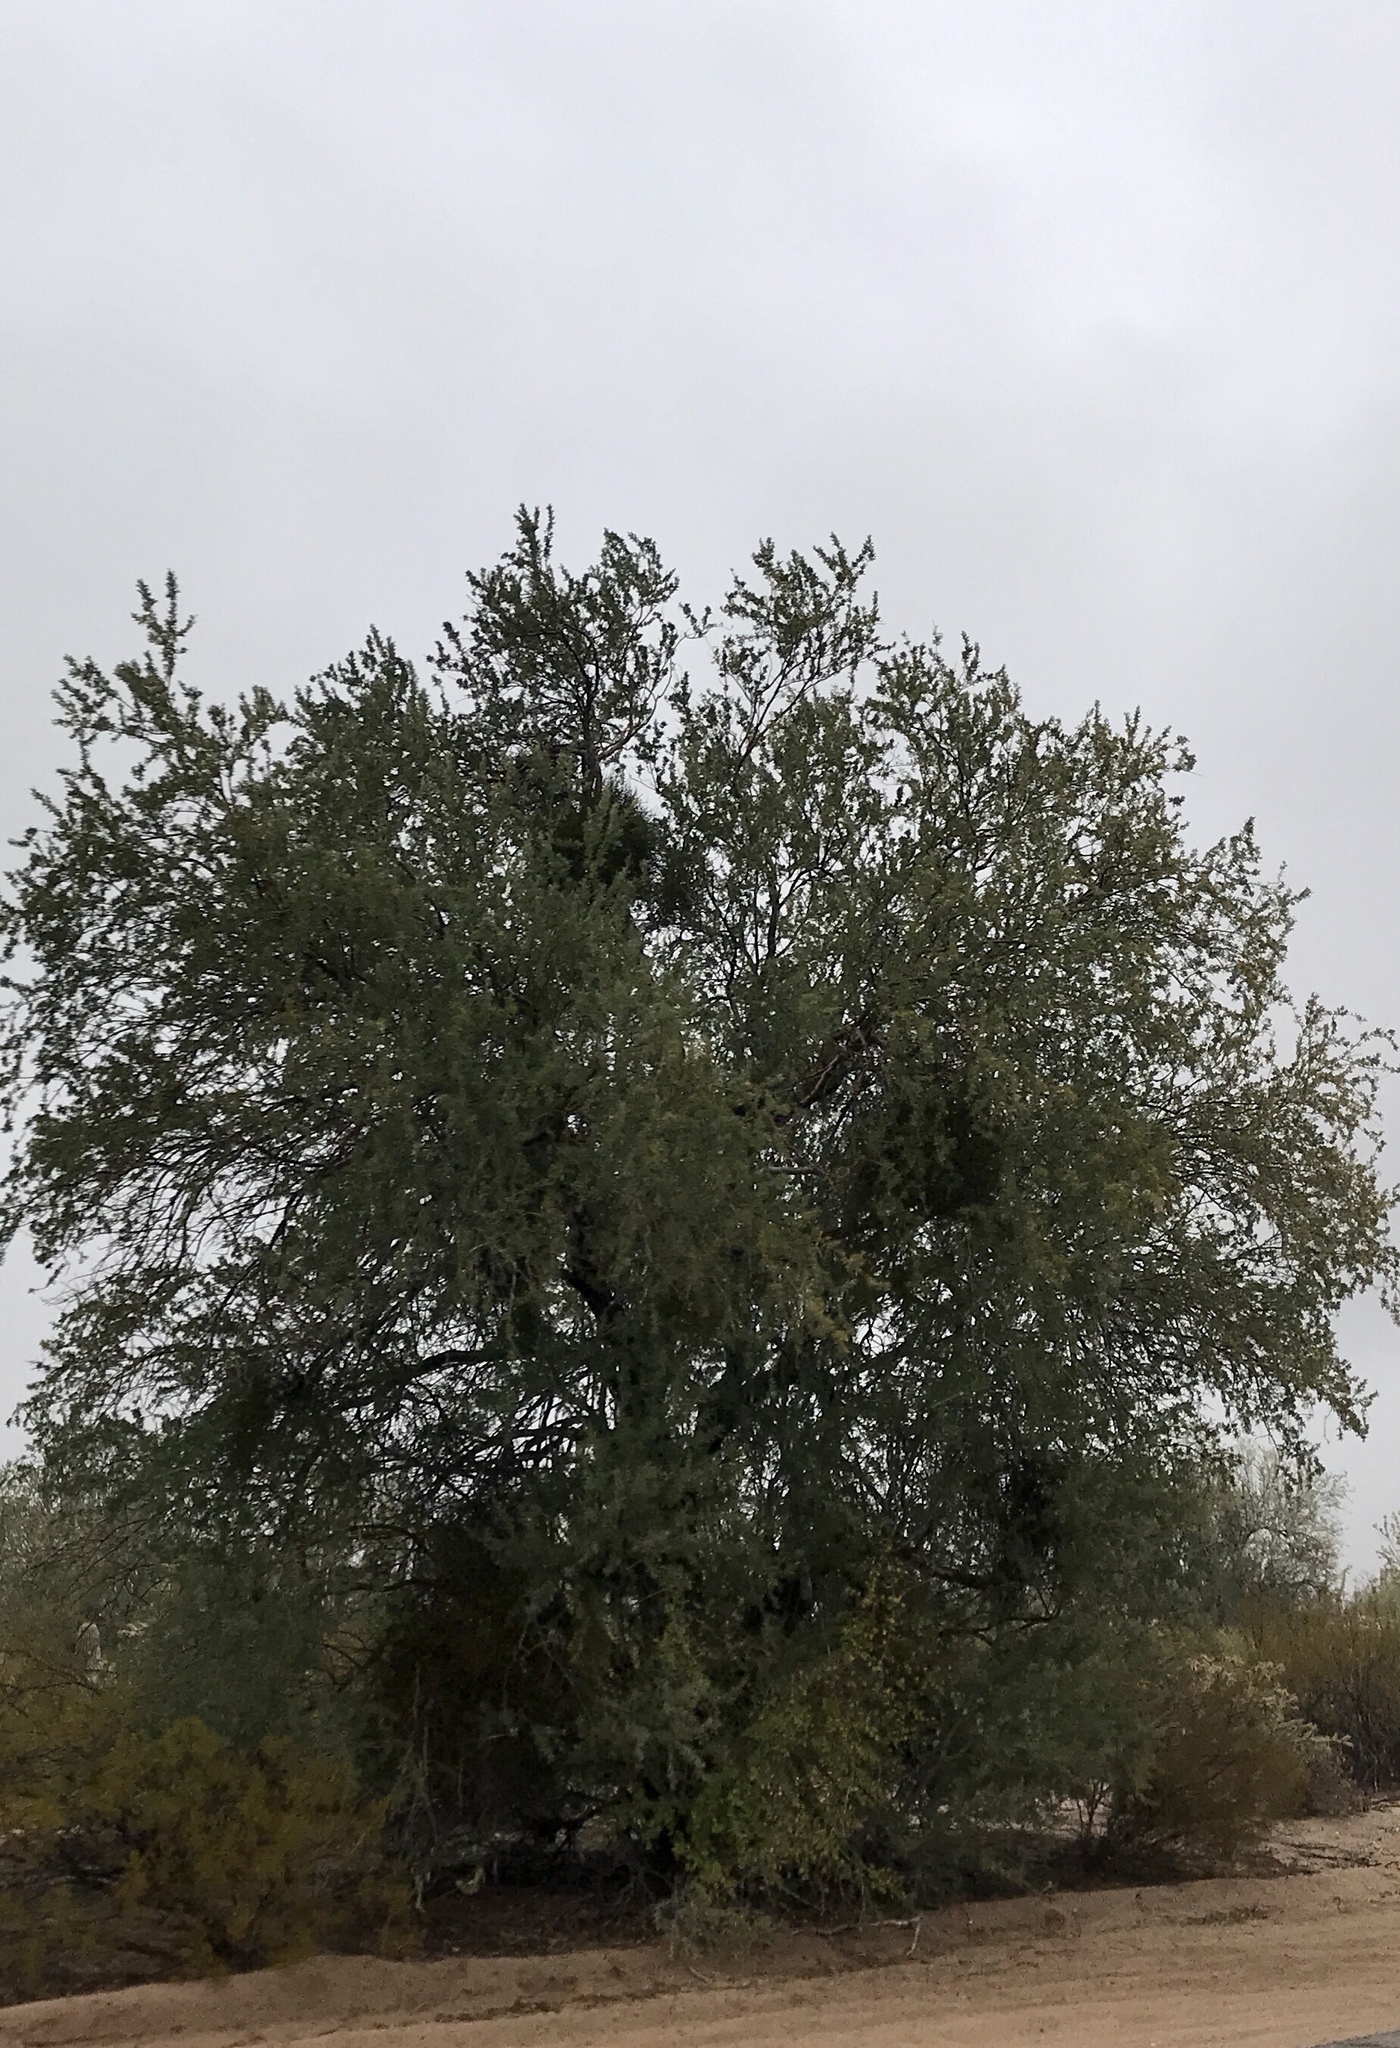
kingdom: Plantae
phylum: Tracheophyta
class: Magnoliopsida
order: Fabales
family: Fabaceae
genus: Olneya
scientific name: Olneya tesota
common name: Desert ironwood
